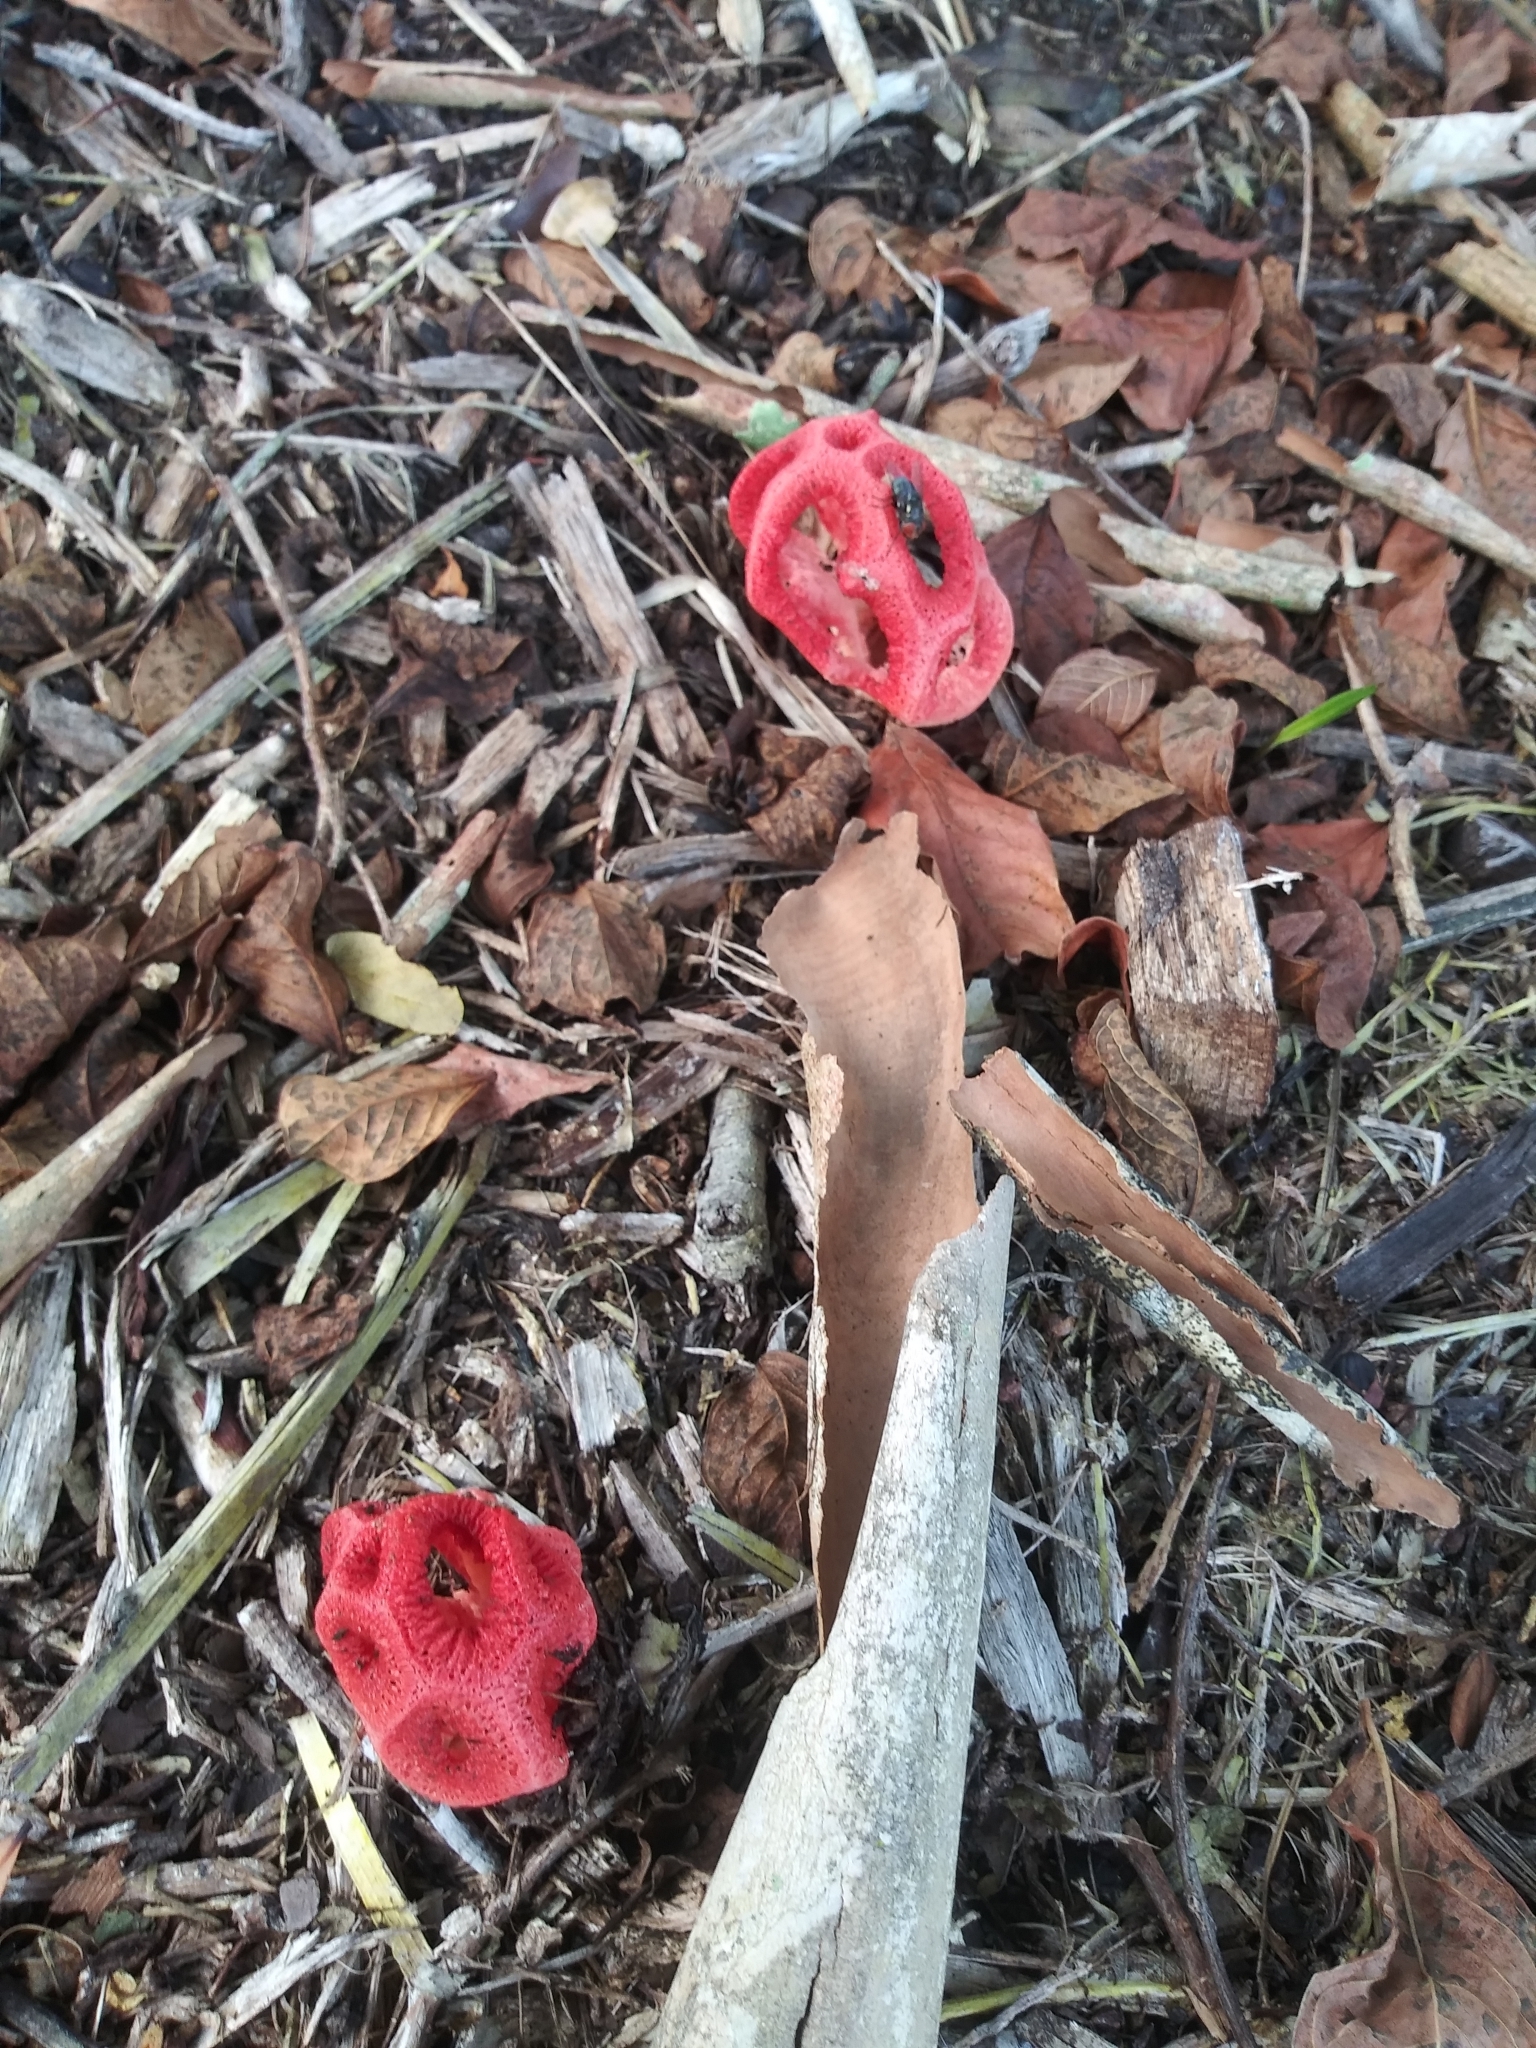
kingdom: Fungi
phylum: Basidiomycota
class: Agaricomycetes
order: Phallales
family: Phallaceae
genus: Clathrus
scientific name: Clathrus crispatus
